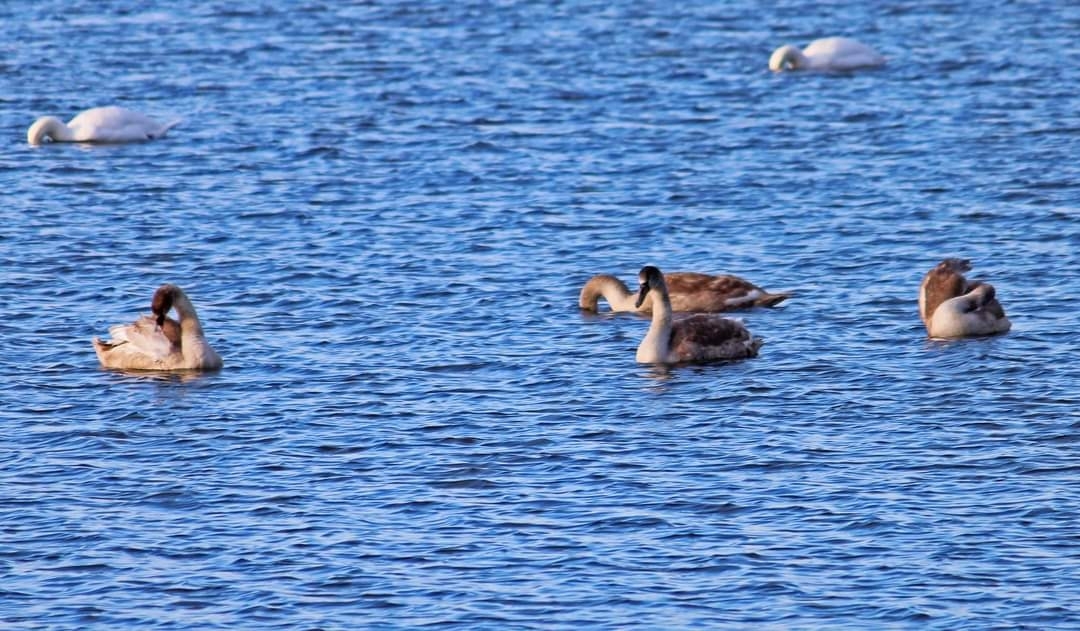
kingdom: Animalia
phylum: Chordata
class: Aves
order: Anseriformes
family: Anatidae
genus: Cygnus
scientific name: Cygnus olor
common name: Mute swan
